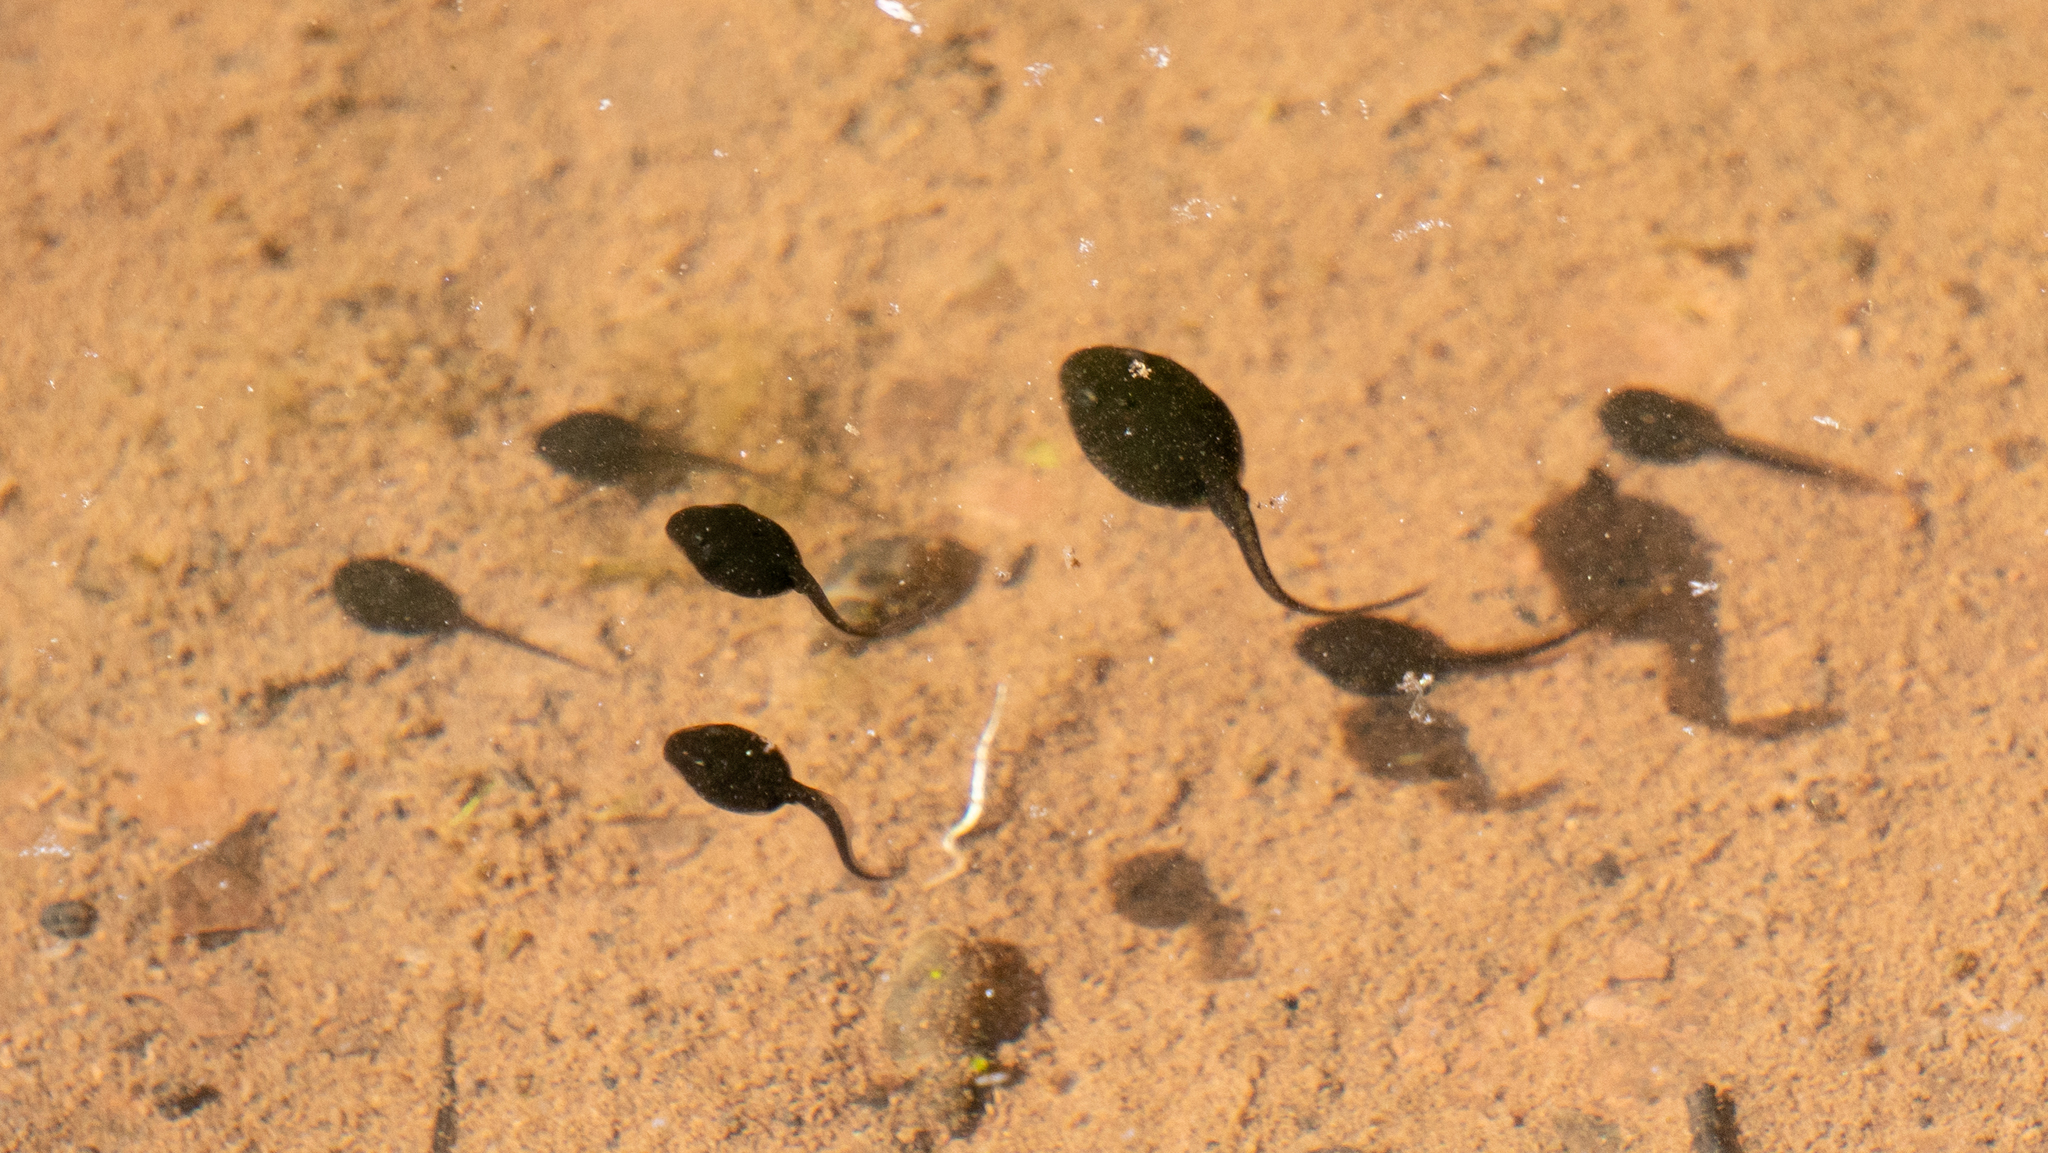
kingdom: Animalia
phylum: Chordata
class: Amphibia
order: Anura
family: Bufonidae
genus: Anaxyrus
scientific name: Anaxyrus americanus
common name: American toad
